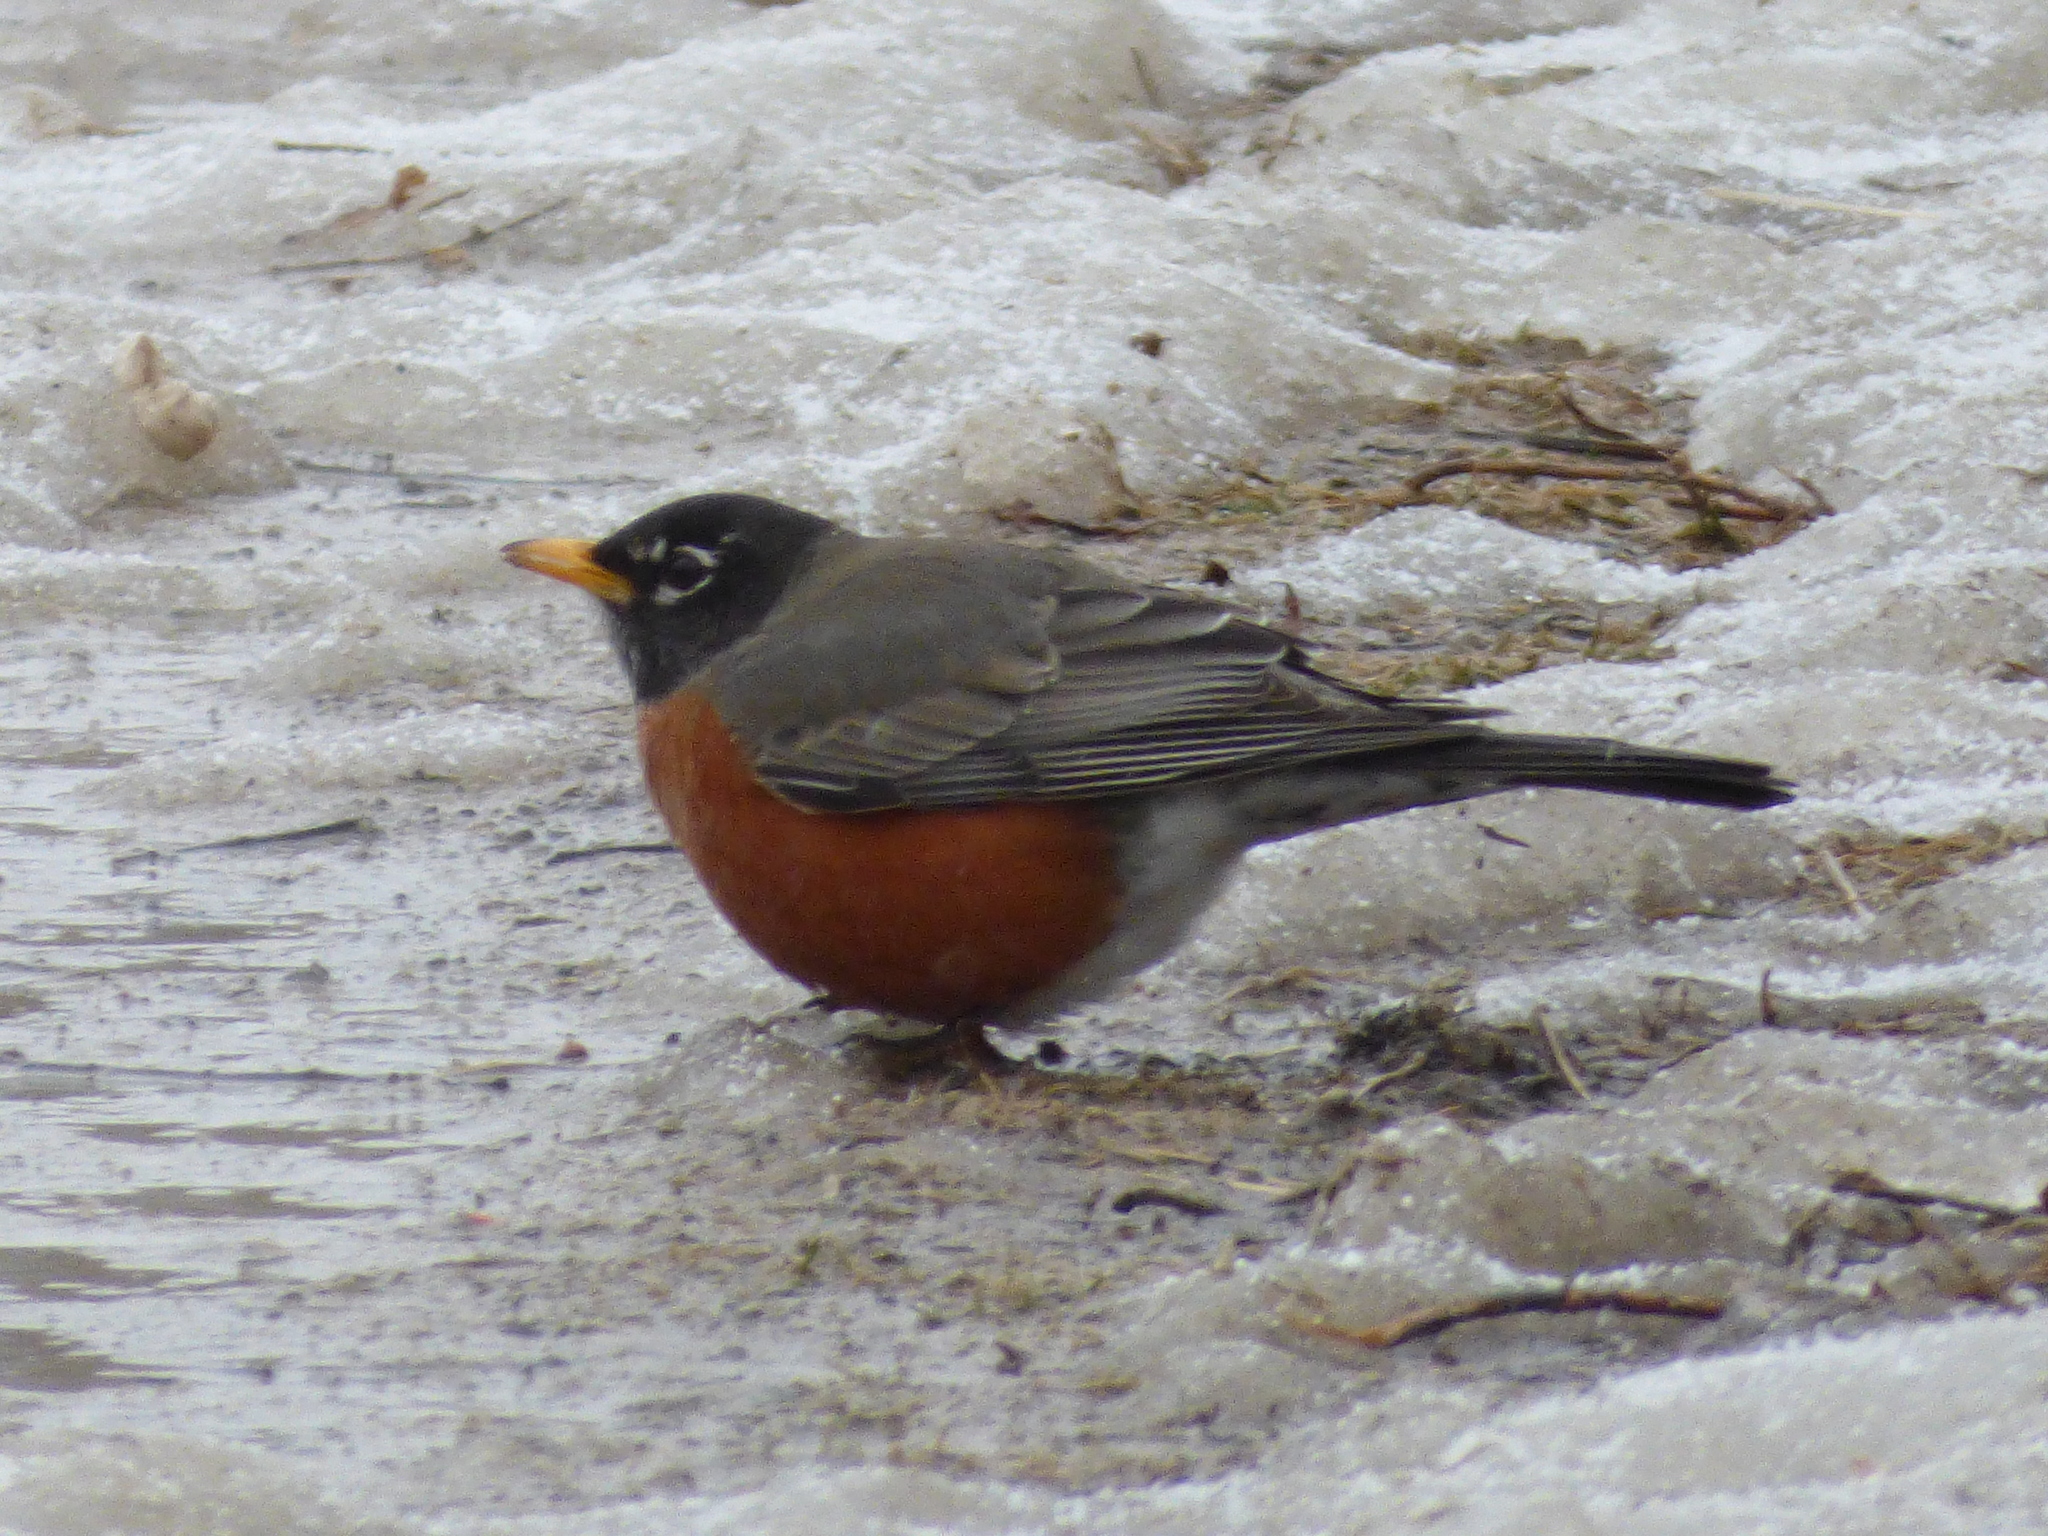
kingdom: Animalia
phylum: Chordata
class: Aves
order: Passeriformes
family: Turdidae
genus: Turdus
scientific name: Turdus migratorius
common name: American robin
